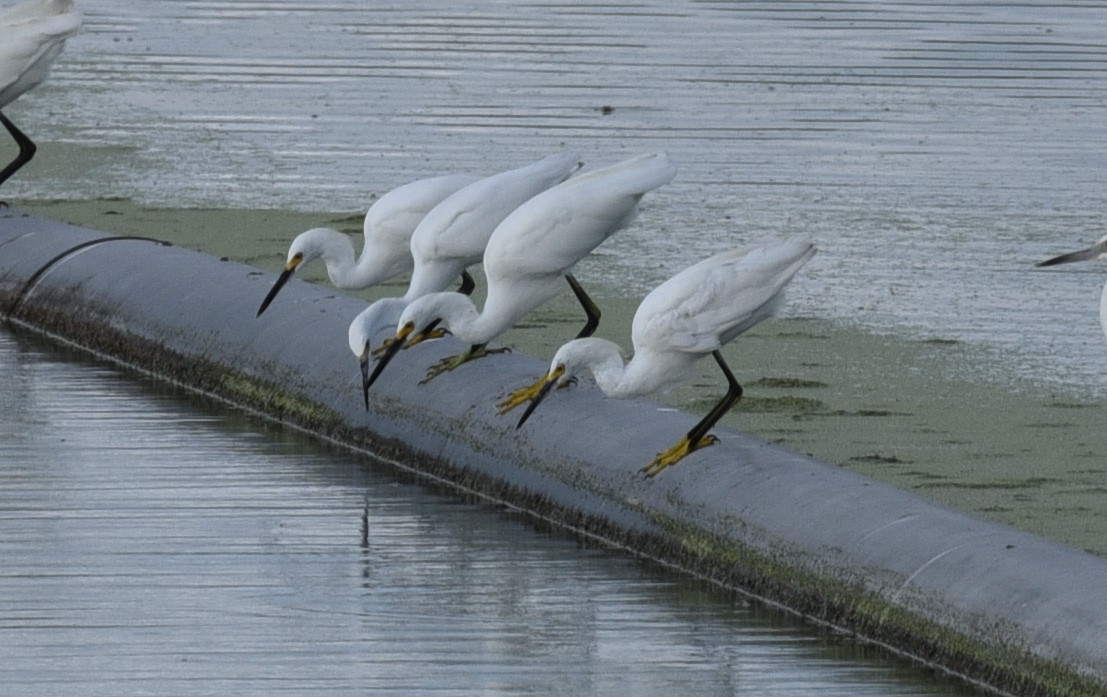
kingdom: Animalia
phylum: Chordata
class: Aves
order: Pelecaniformes
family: Ardeidae
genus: Egretta
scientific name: Egretta thula
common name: Snowy egret
